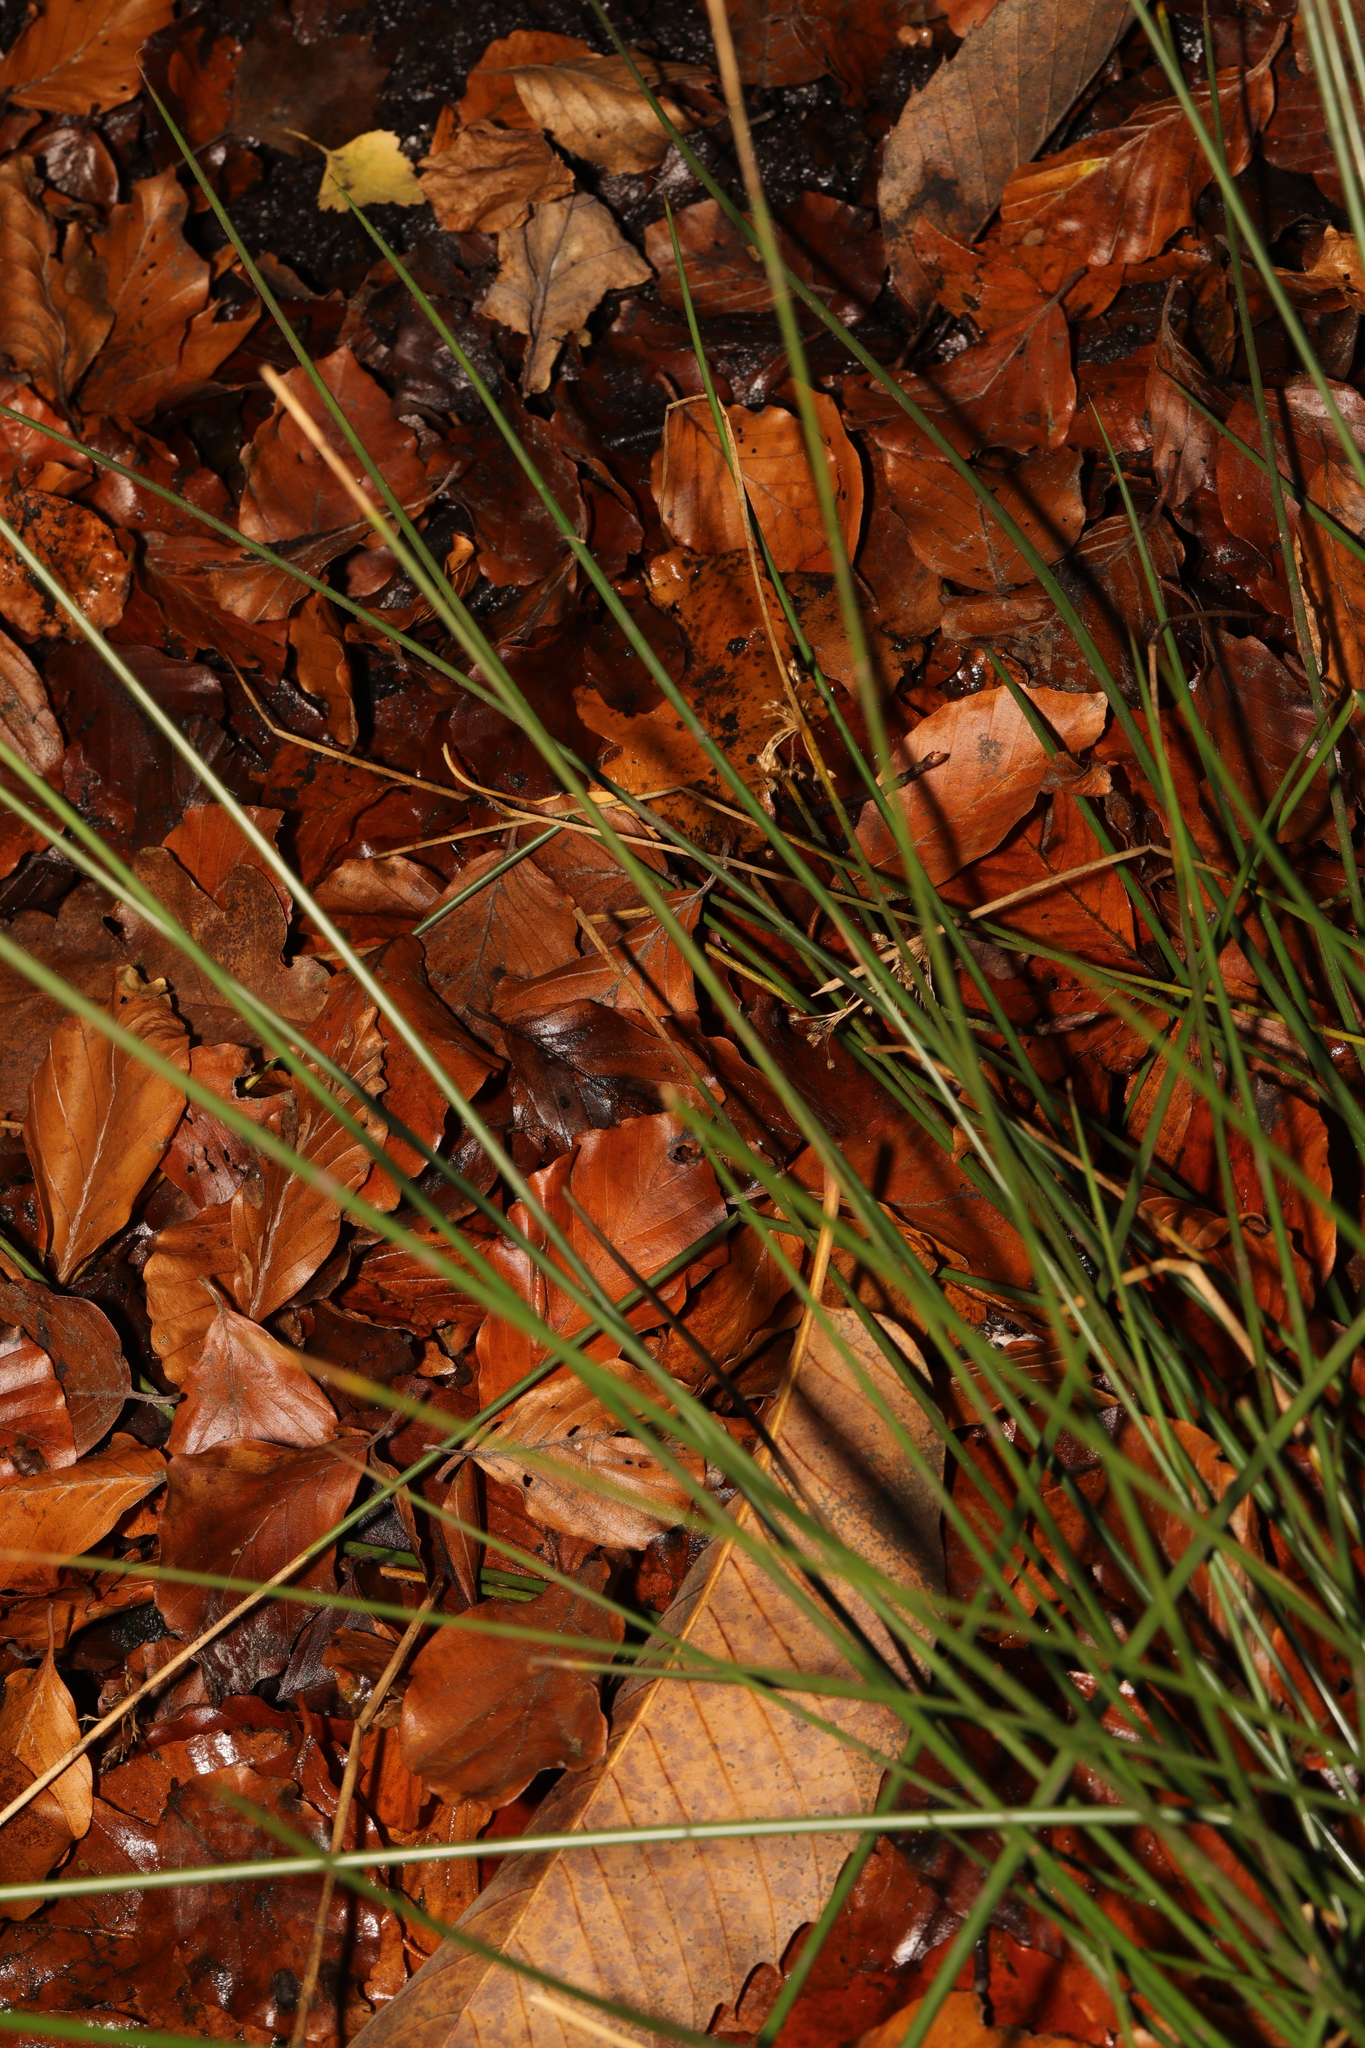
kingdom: Plantae
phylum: Tracheophyta
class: Liliopsida
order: Poales
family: Juncaceae
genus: Juncus
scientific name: Juncus effusus
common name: Soft rush
